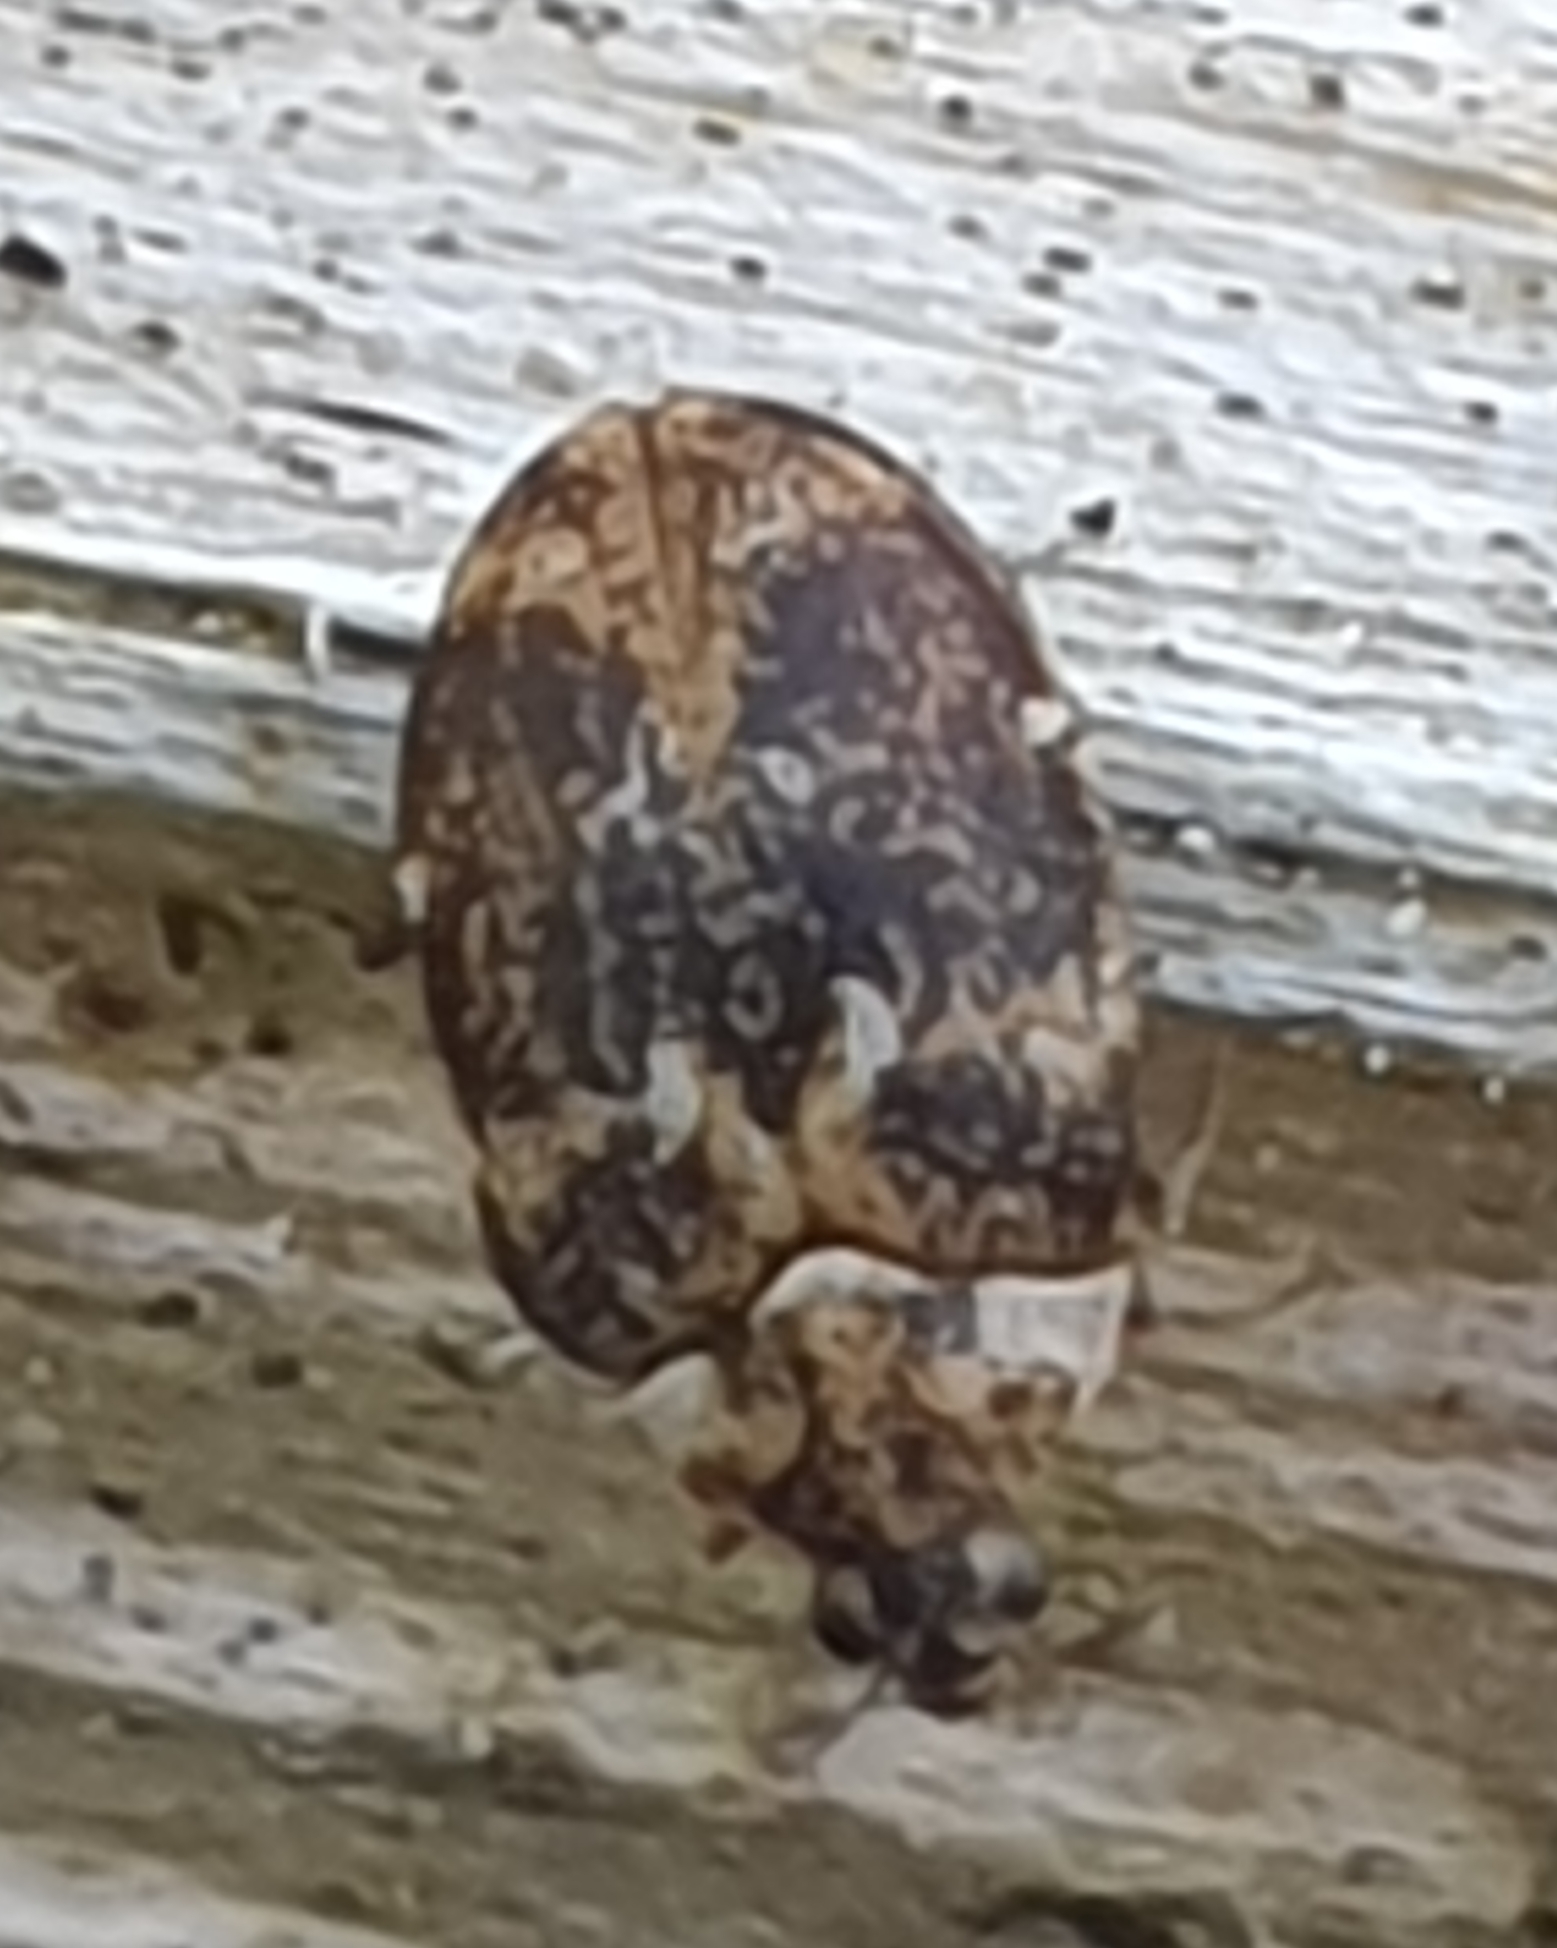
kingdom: Animalia
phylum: Arthropoda
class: Insecta
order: Coleoptera
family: Dermestidae
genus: Anthrenus
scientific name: Anthrenus fuscus
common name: Mill carpet beetle
